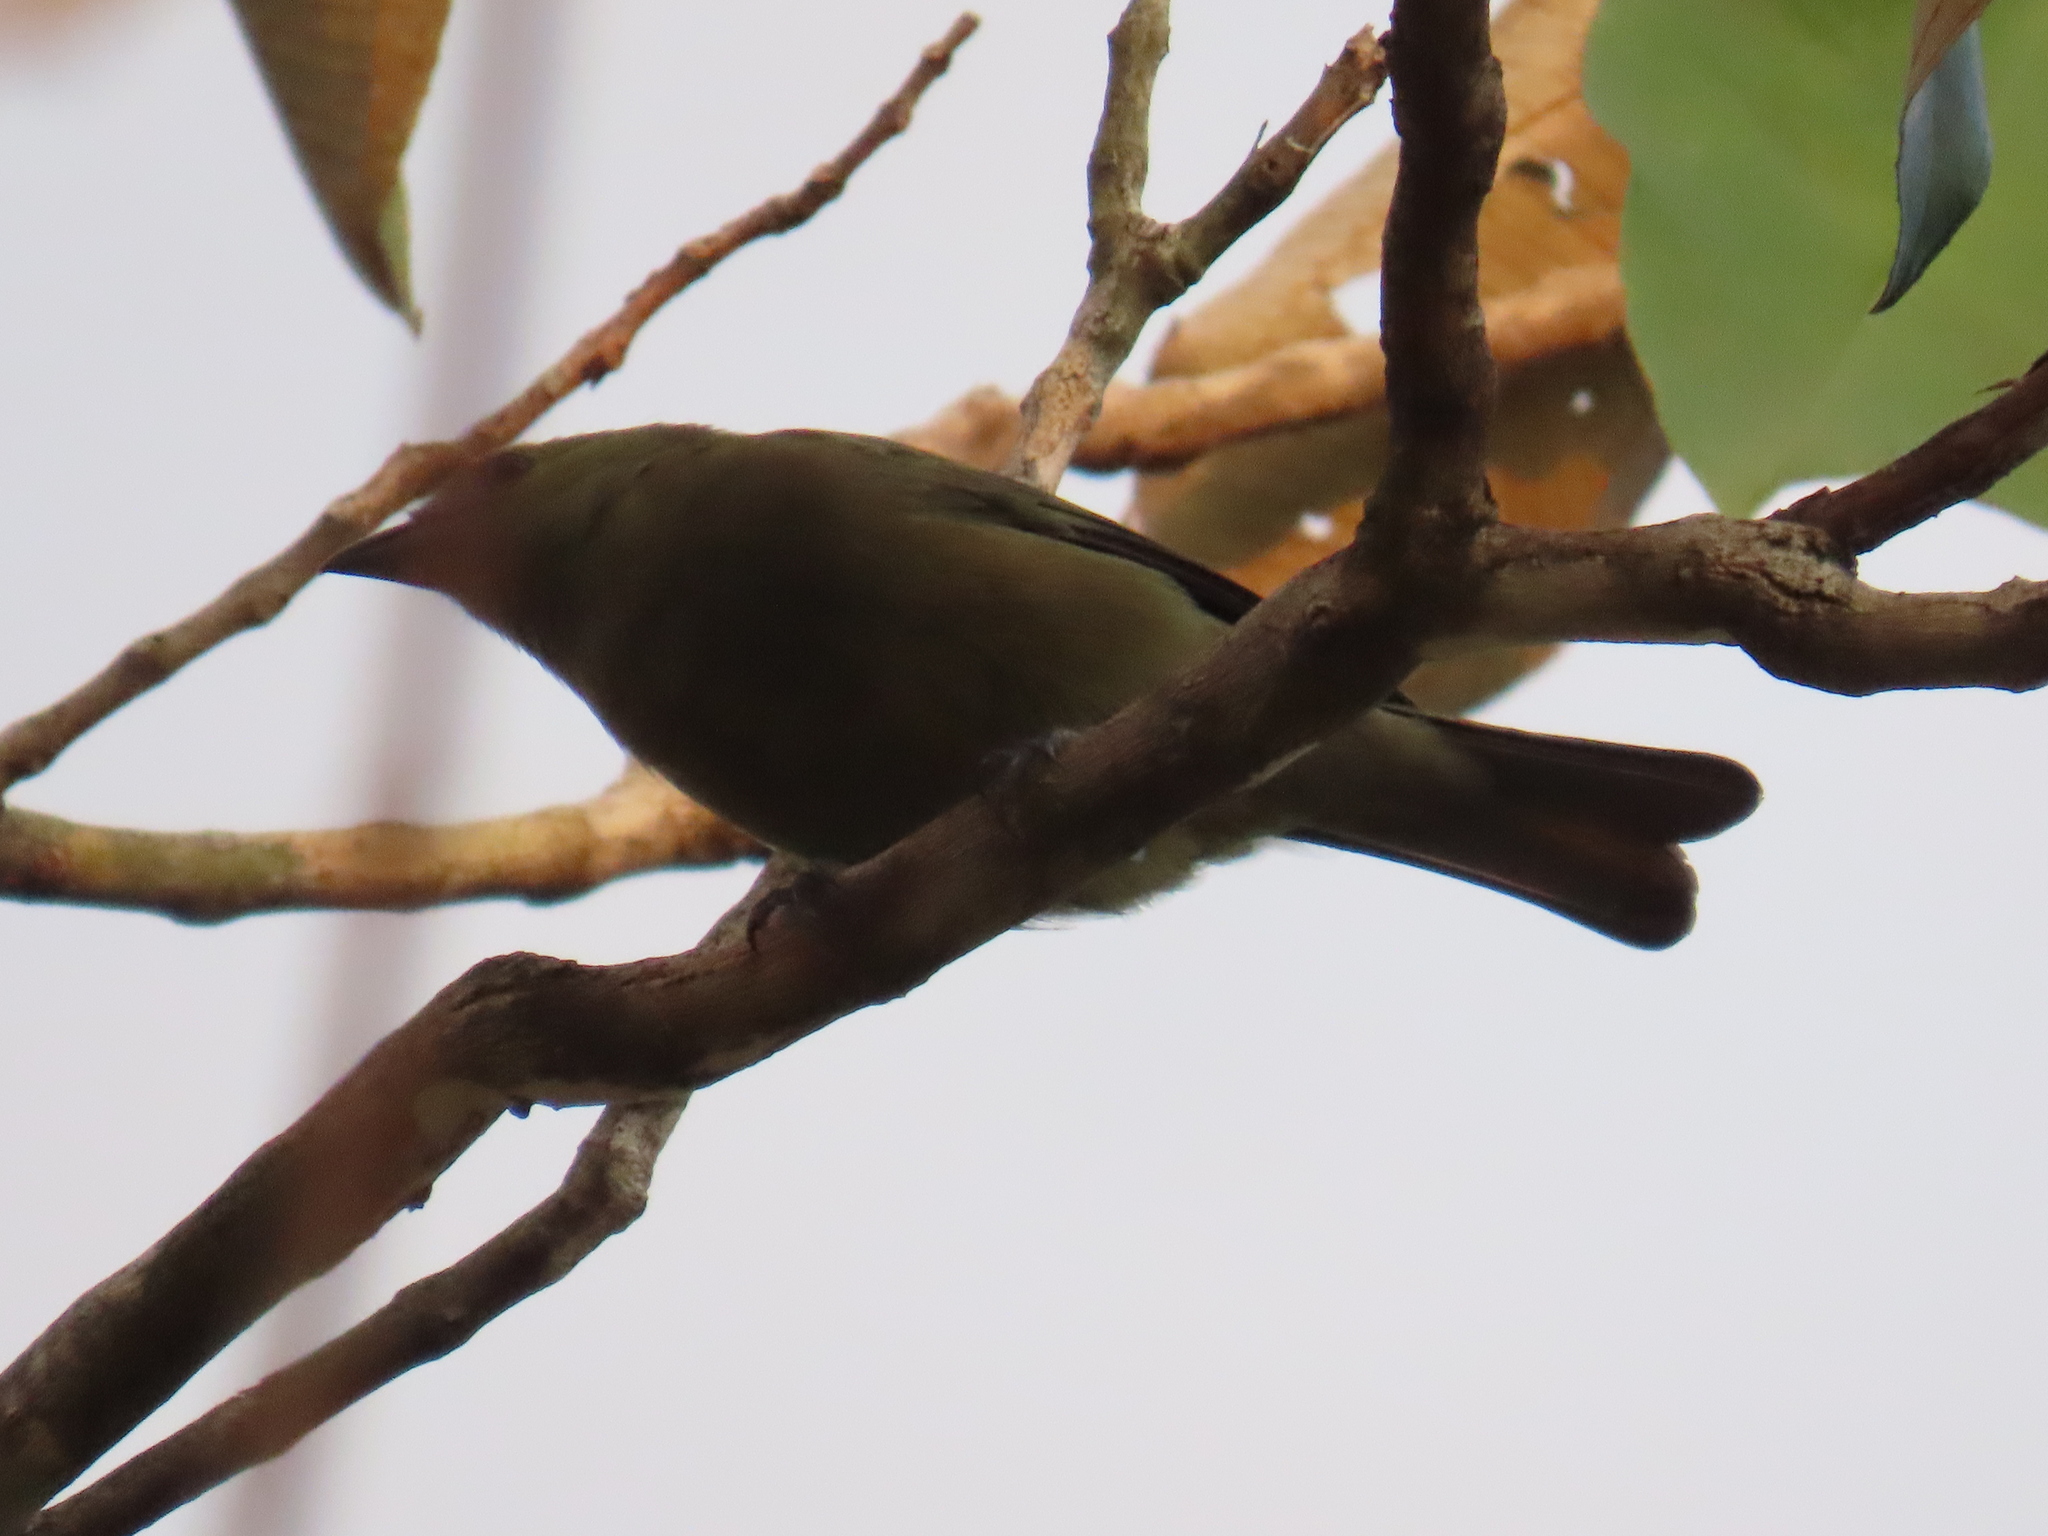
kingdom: Animalia
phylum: Chordata
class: Aves
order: Passeriformes
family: Thraupidae
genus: Thraupis
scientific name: Thraupis palmarum
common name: Palm tanager
